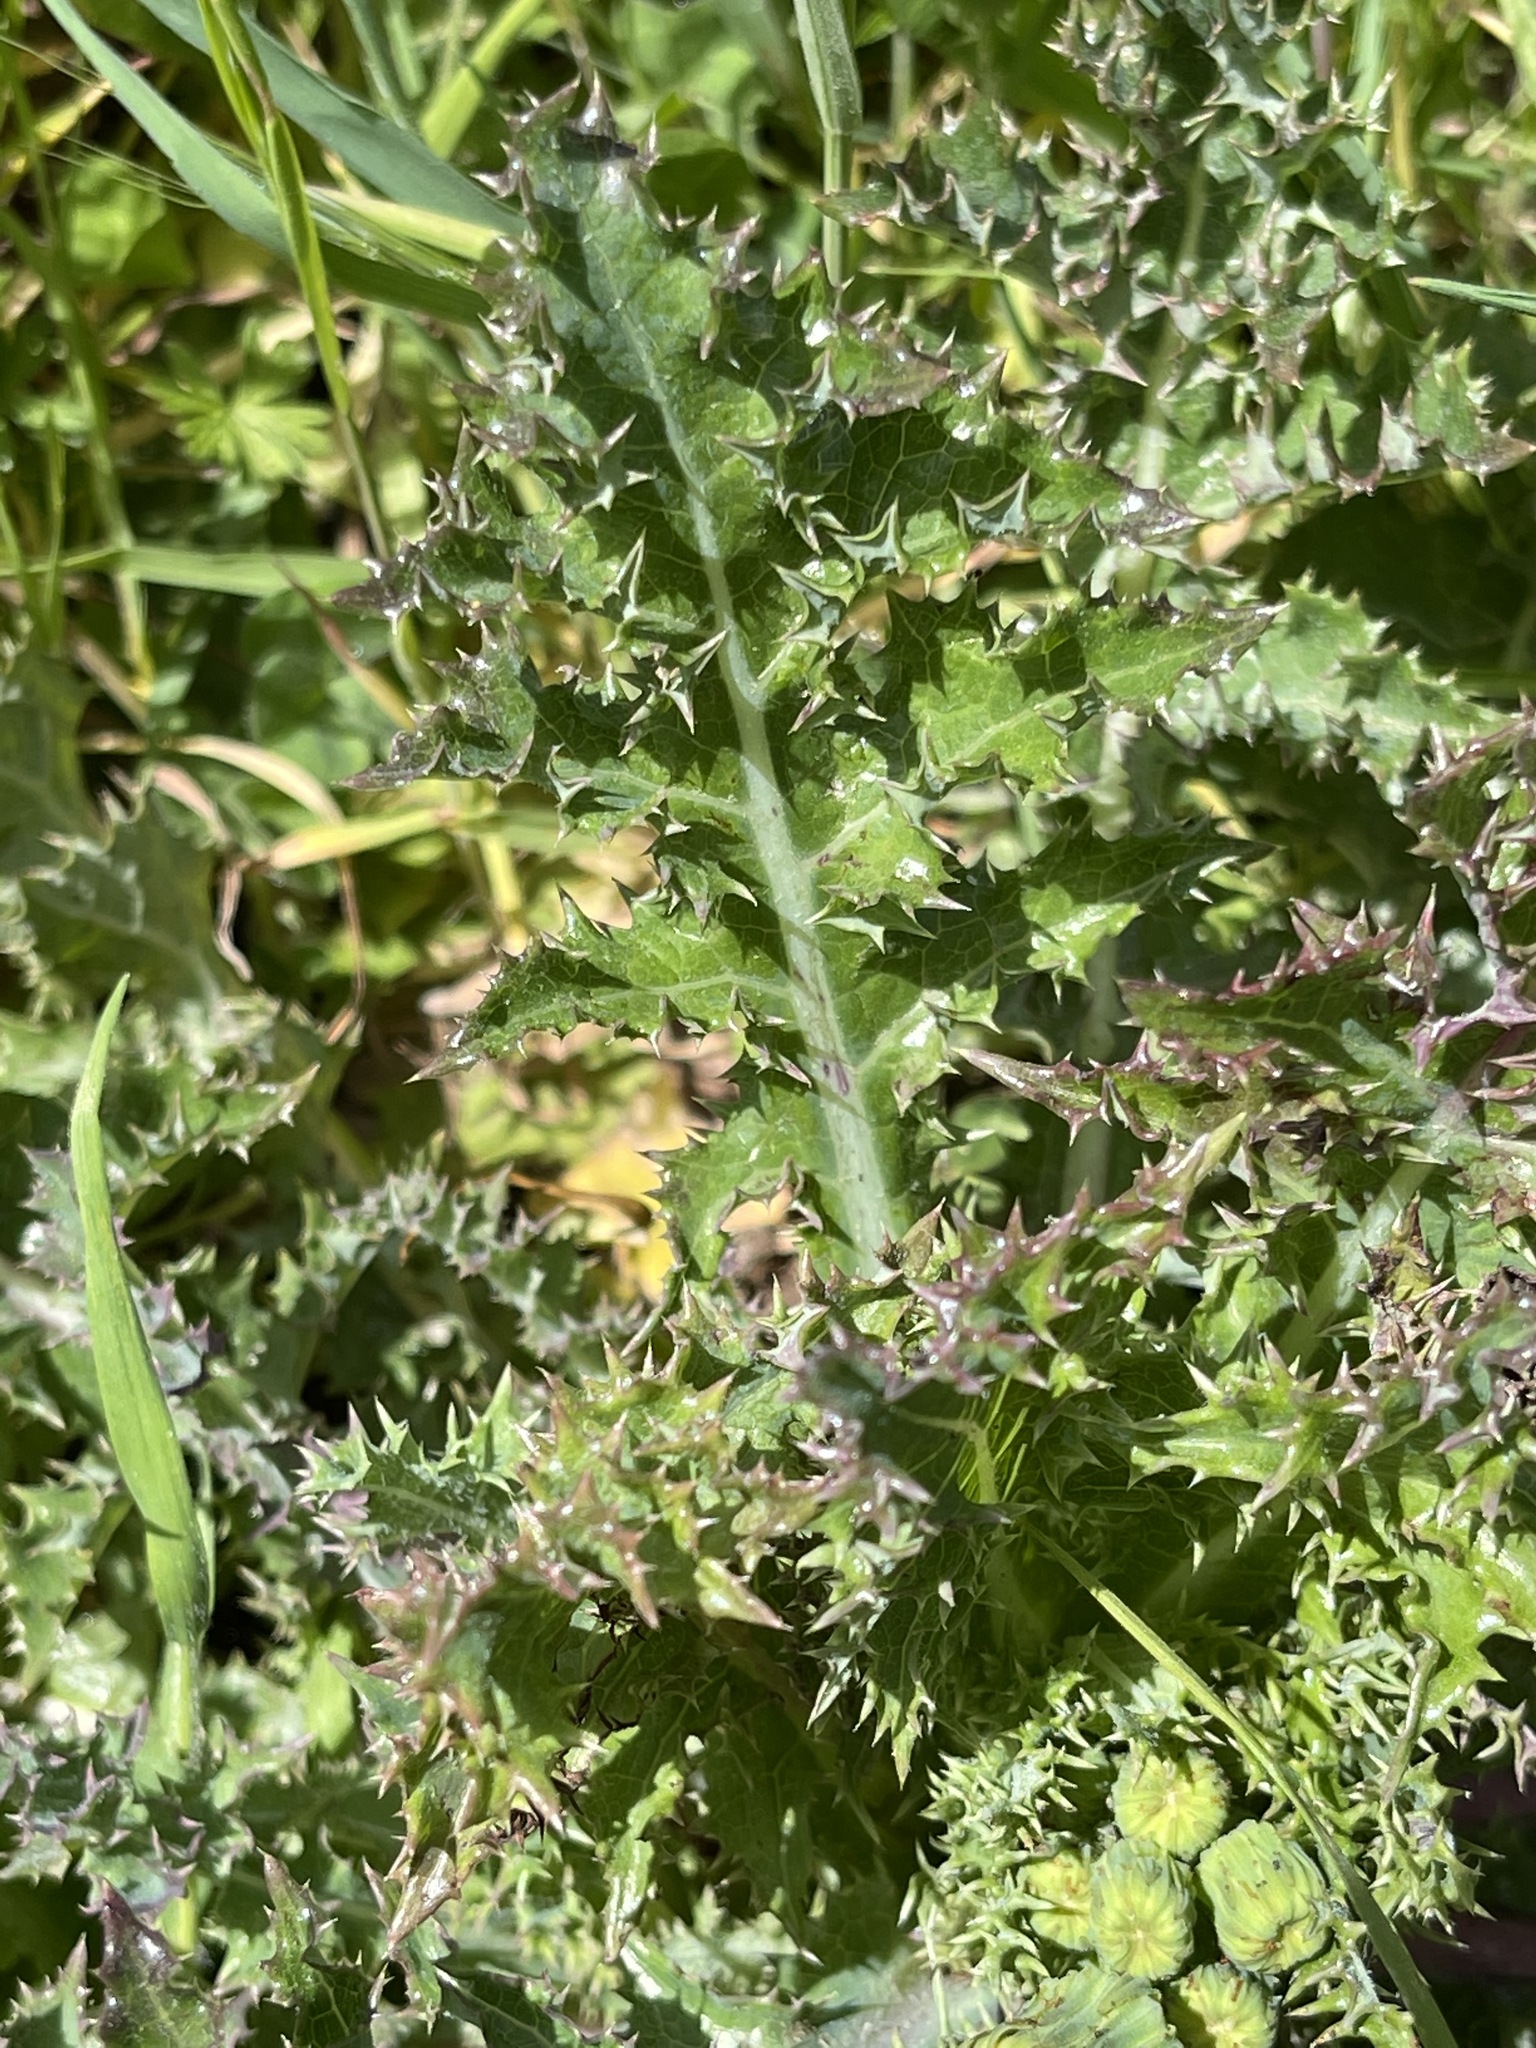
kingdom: Plantae
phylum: Tracheophyta
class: Magnoliopsida
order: Asterales
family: Asteraceae
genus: Sonchus
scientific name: Sonchus asper
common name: Prickly sow-thistle
